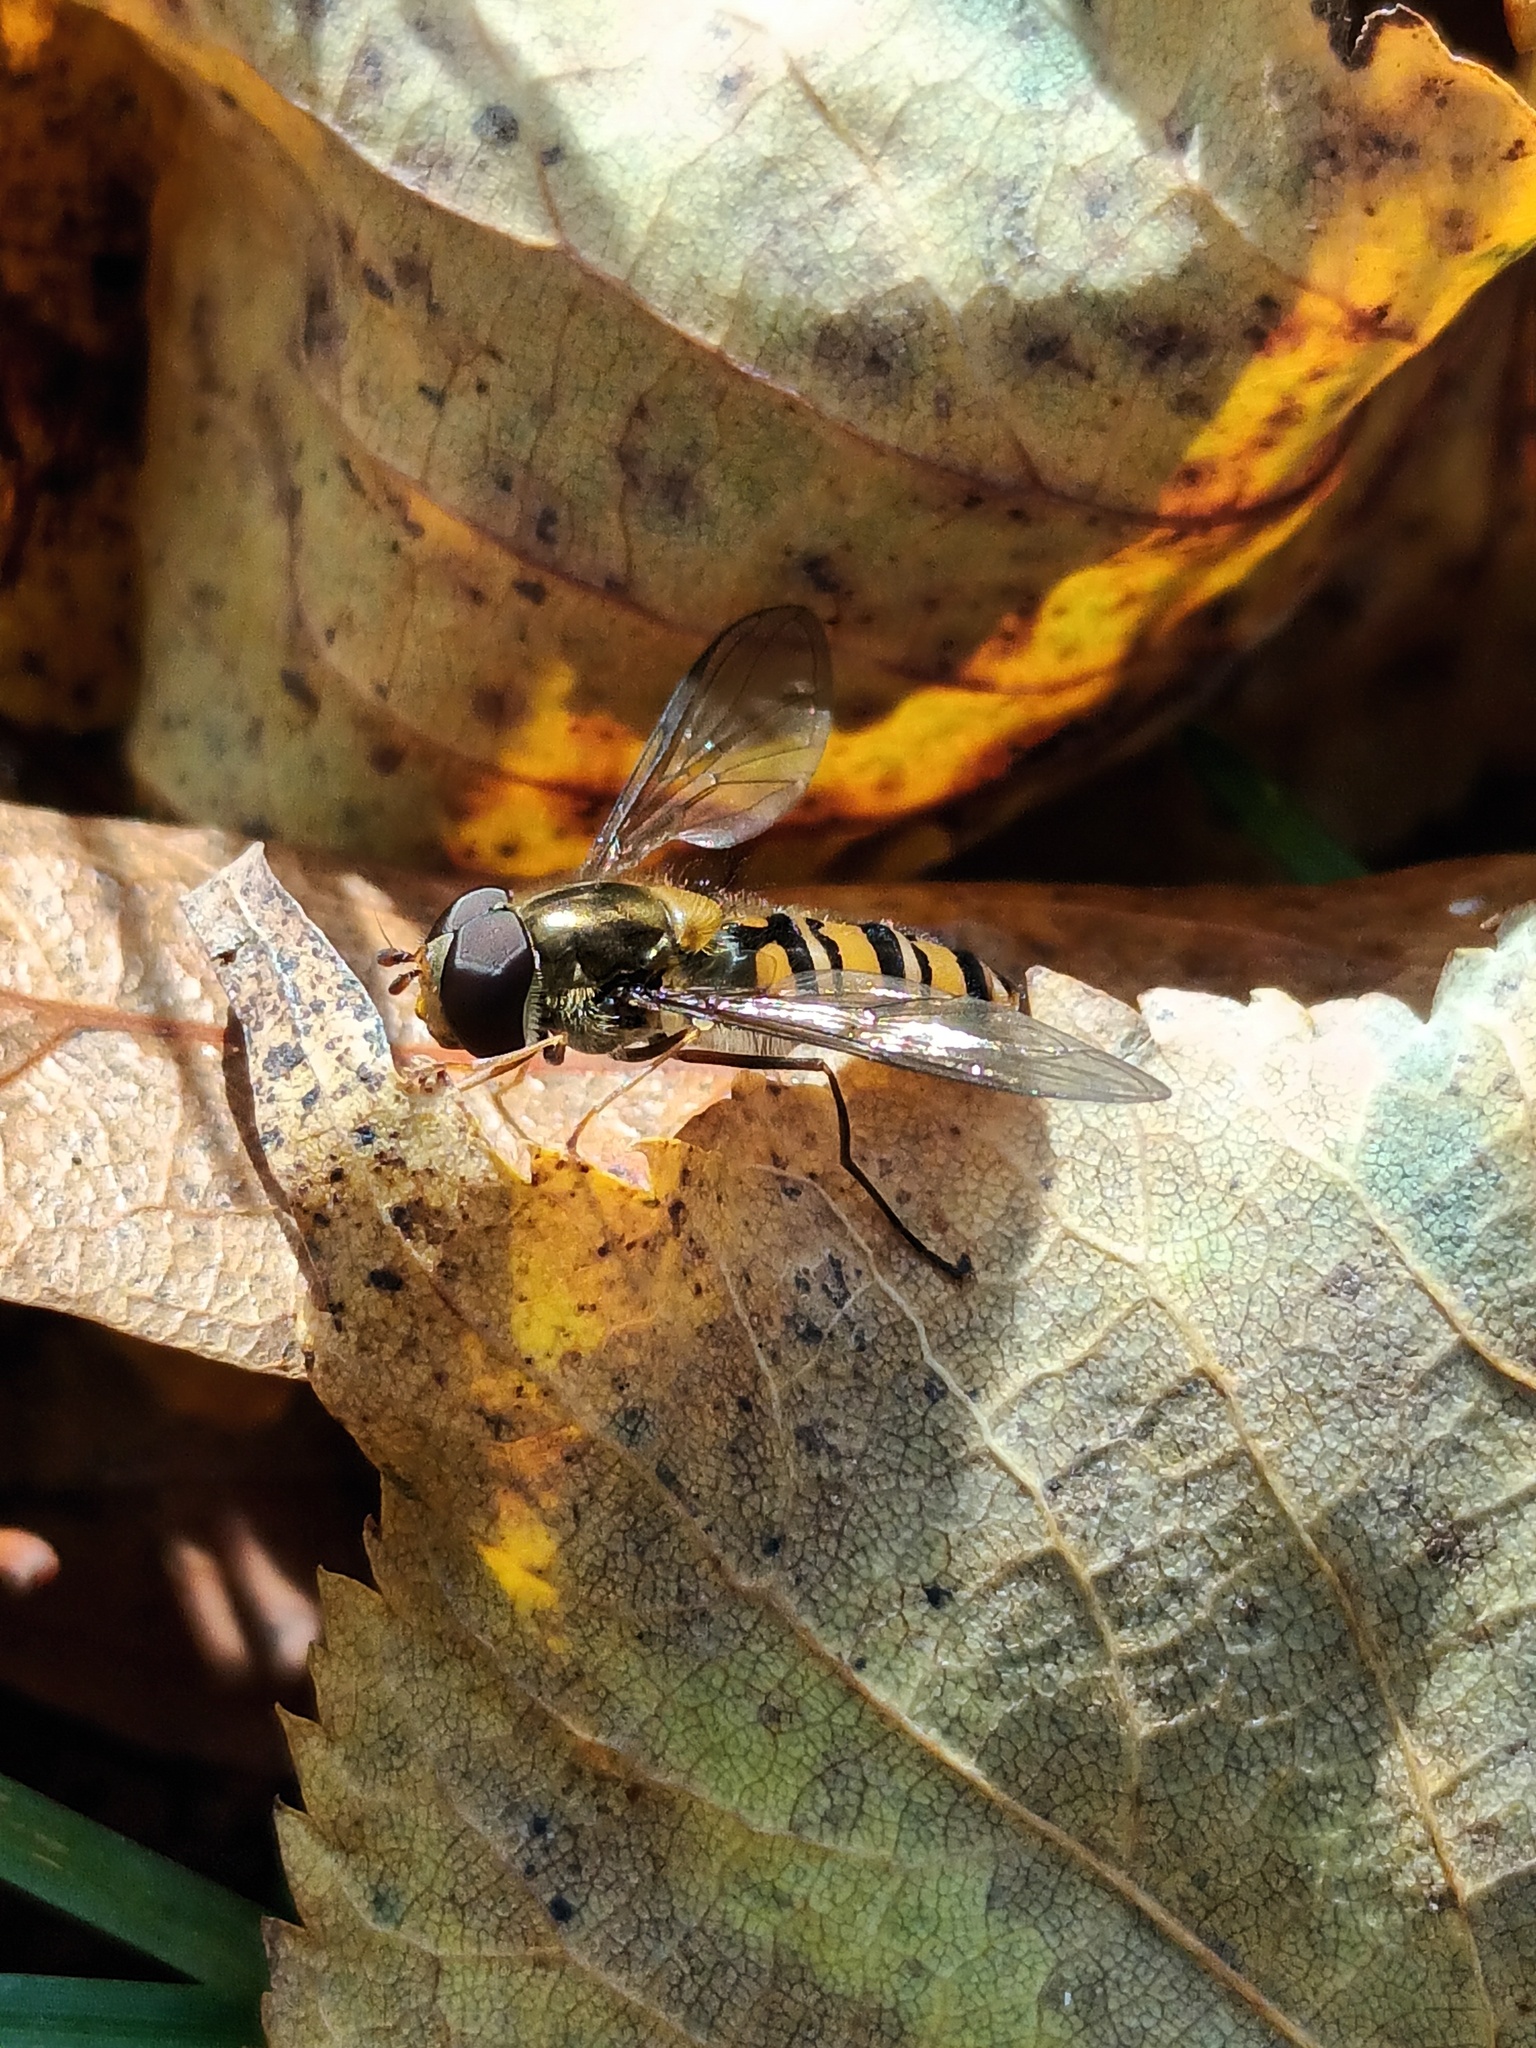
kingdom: Animalia
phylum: Arthropoda
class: Insecta
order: Diptera
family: Syrphidae
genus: Episyrphus
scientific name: Episyrphus balteatus
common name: Marmalade hoverfly
